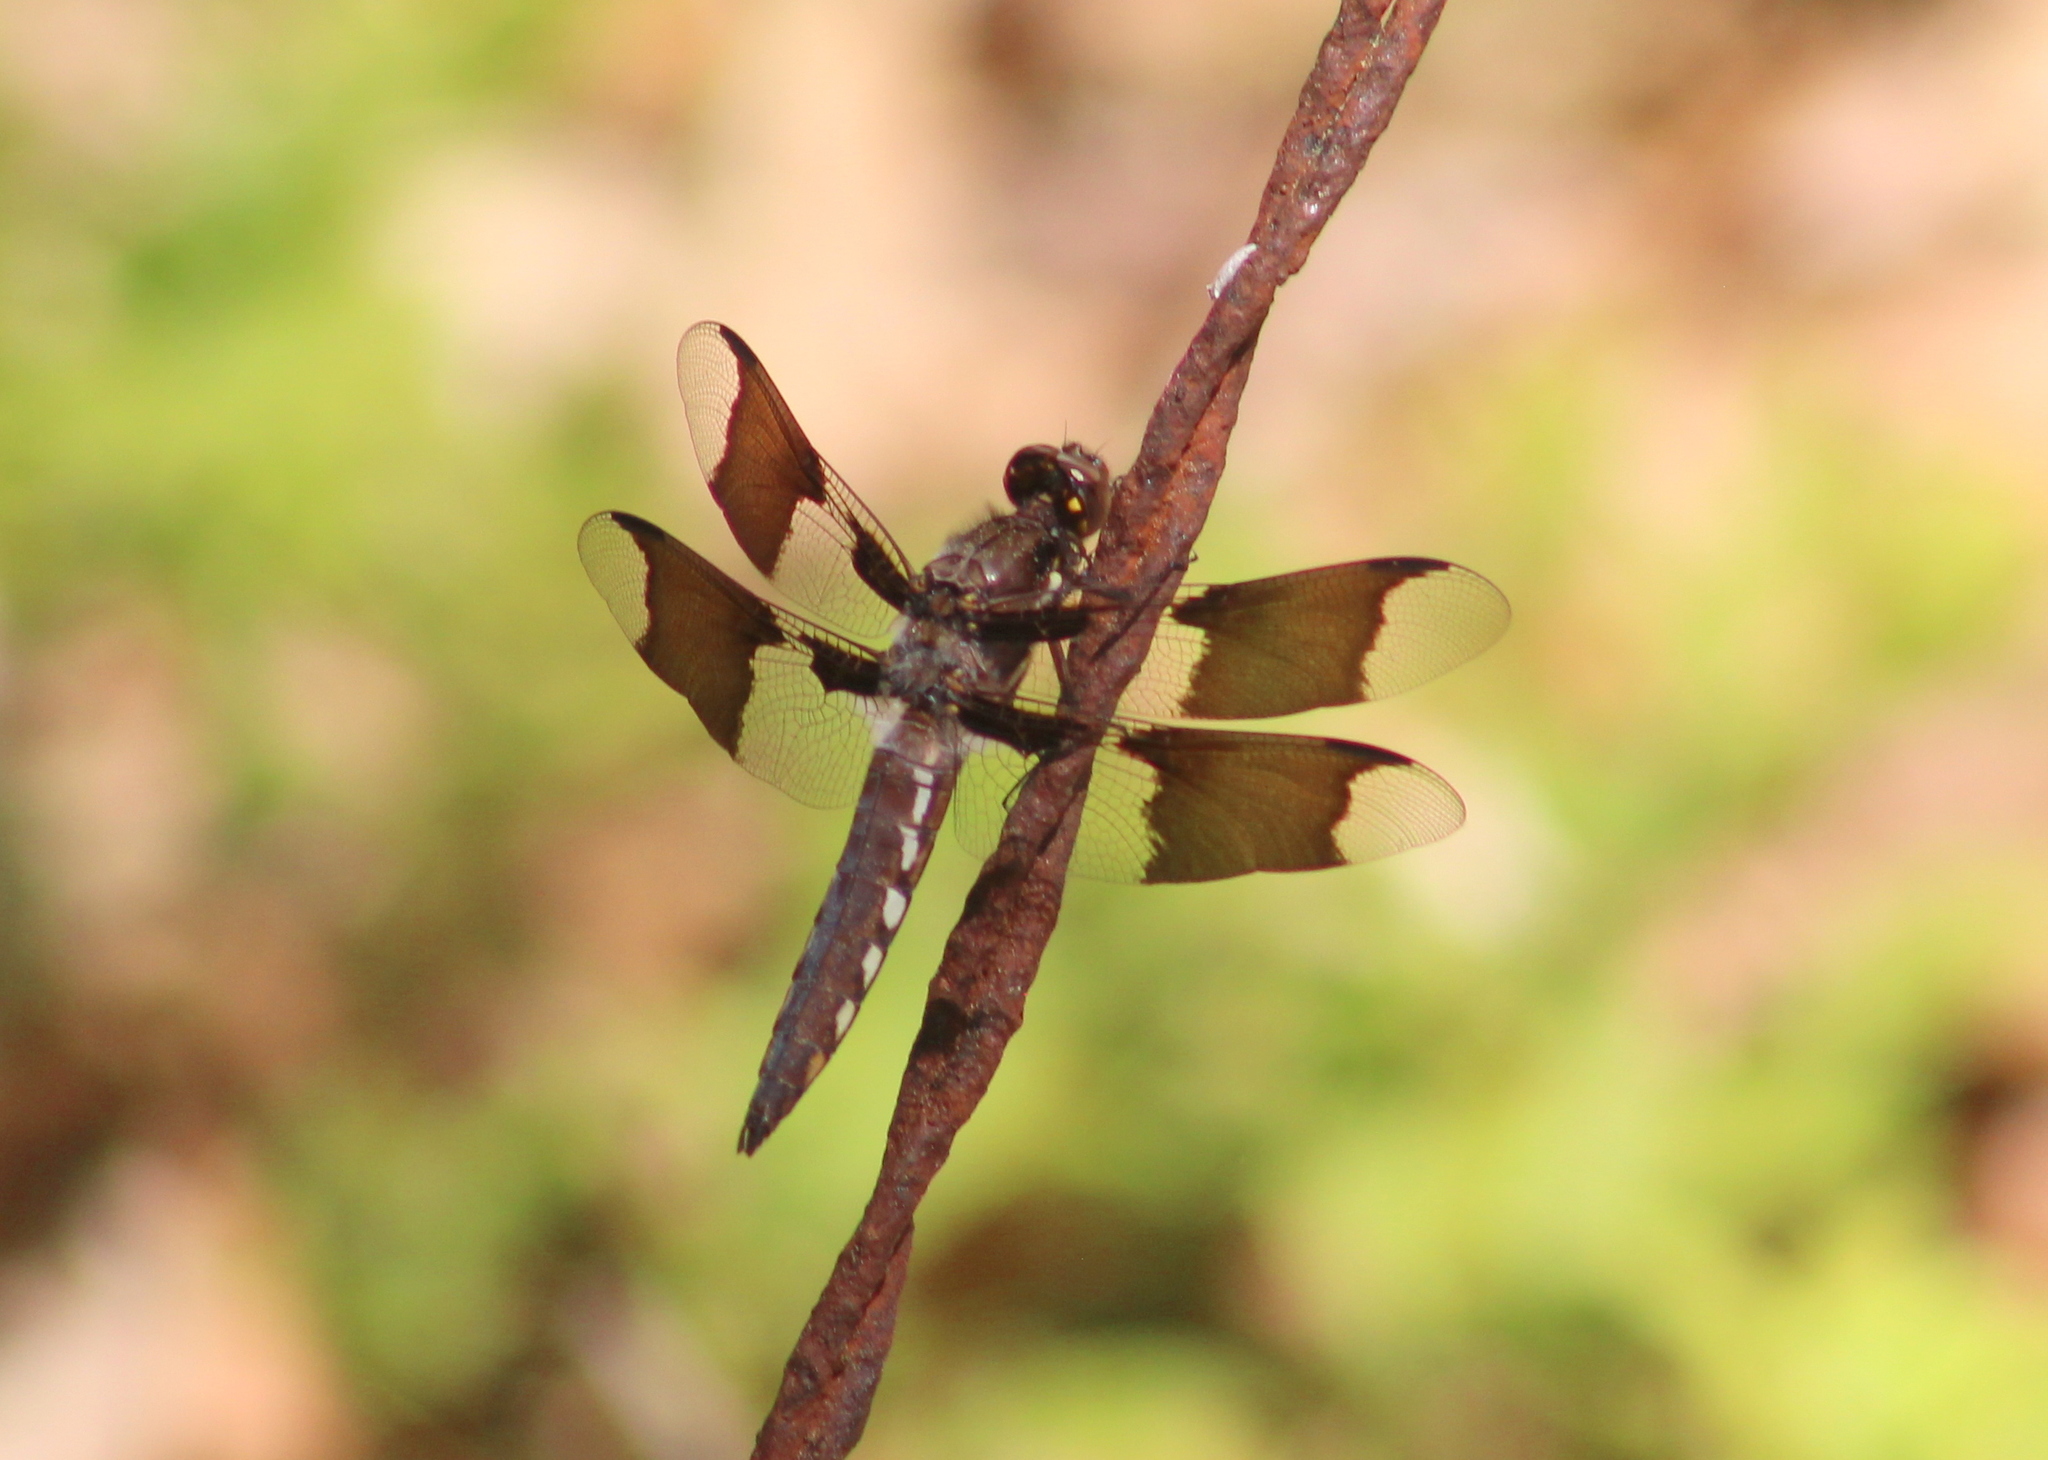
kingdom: Animalia
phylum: Arthropoda
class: Insecta
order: Odonata
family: Libellulidae
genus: Plathemis
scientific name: Plathemis lydia
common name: Common whitetail
